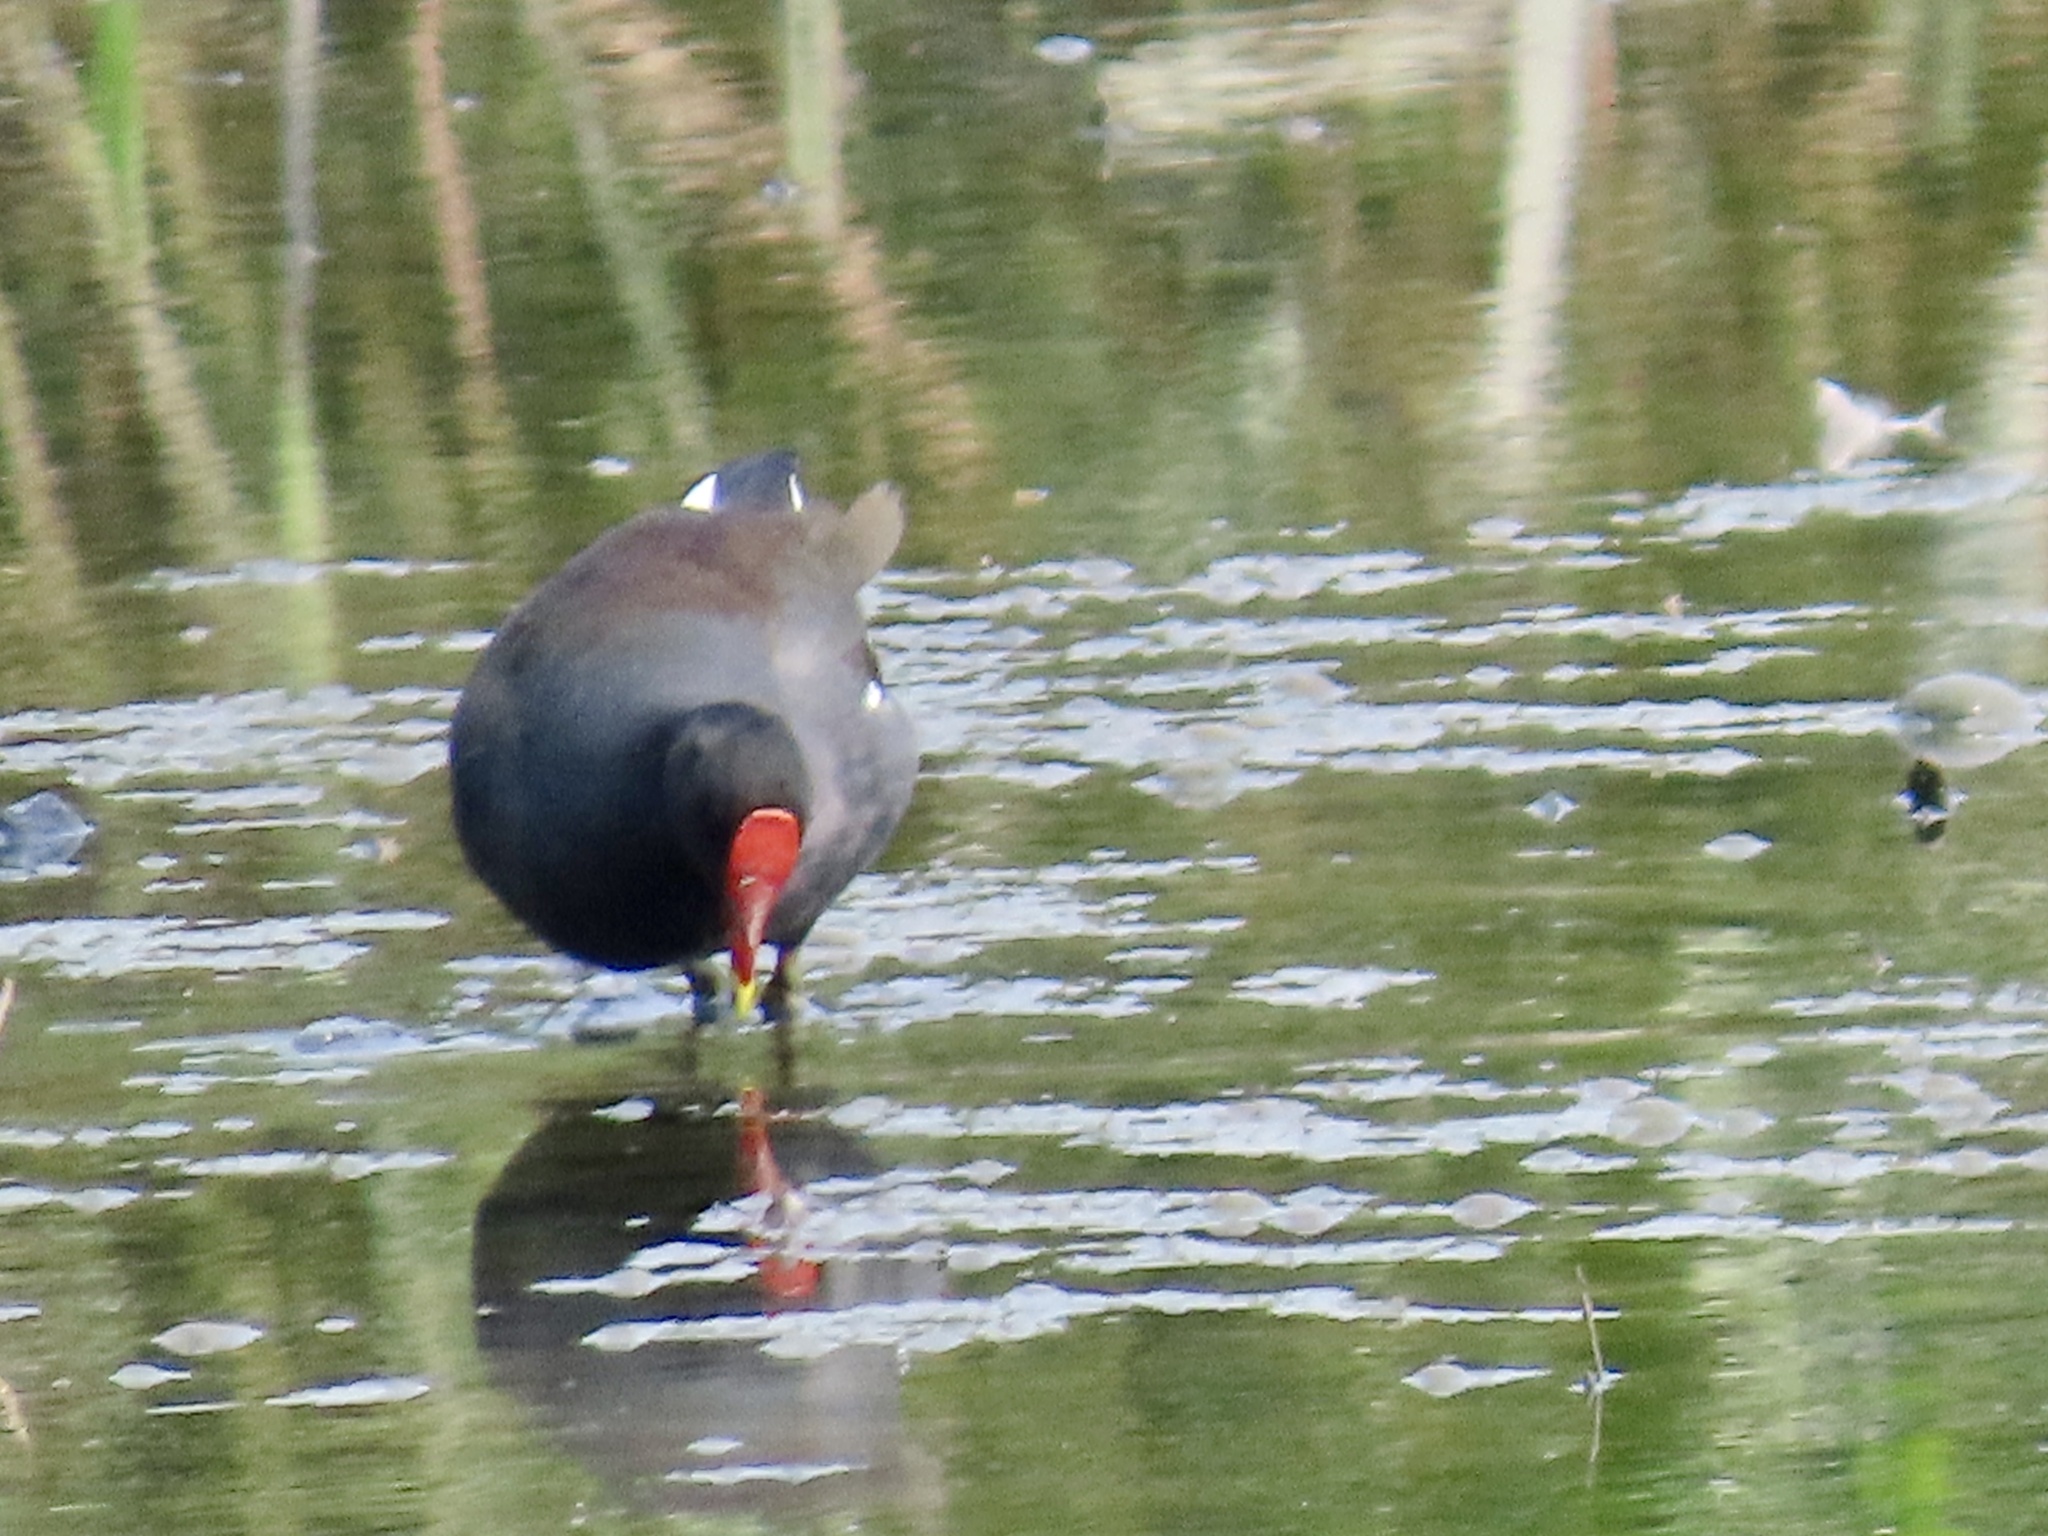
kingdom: Animalia
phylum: Chordata
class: Aves
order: Gruiformes
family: Rallidae
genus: Gallinula
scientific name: Gallinula chloropus
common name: Common moorhen
